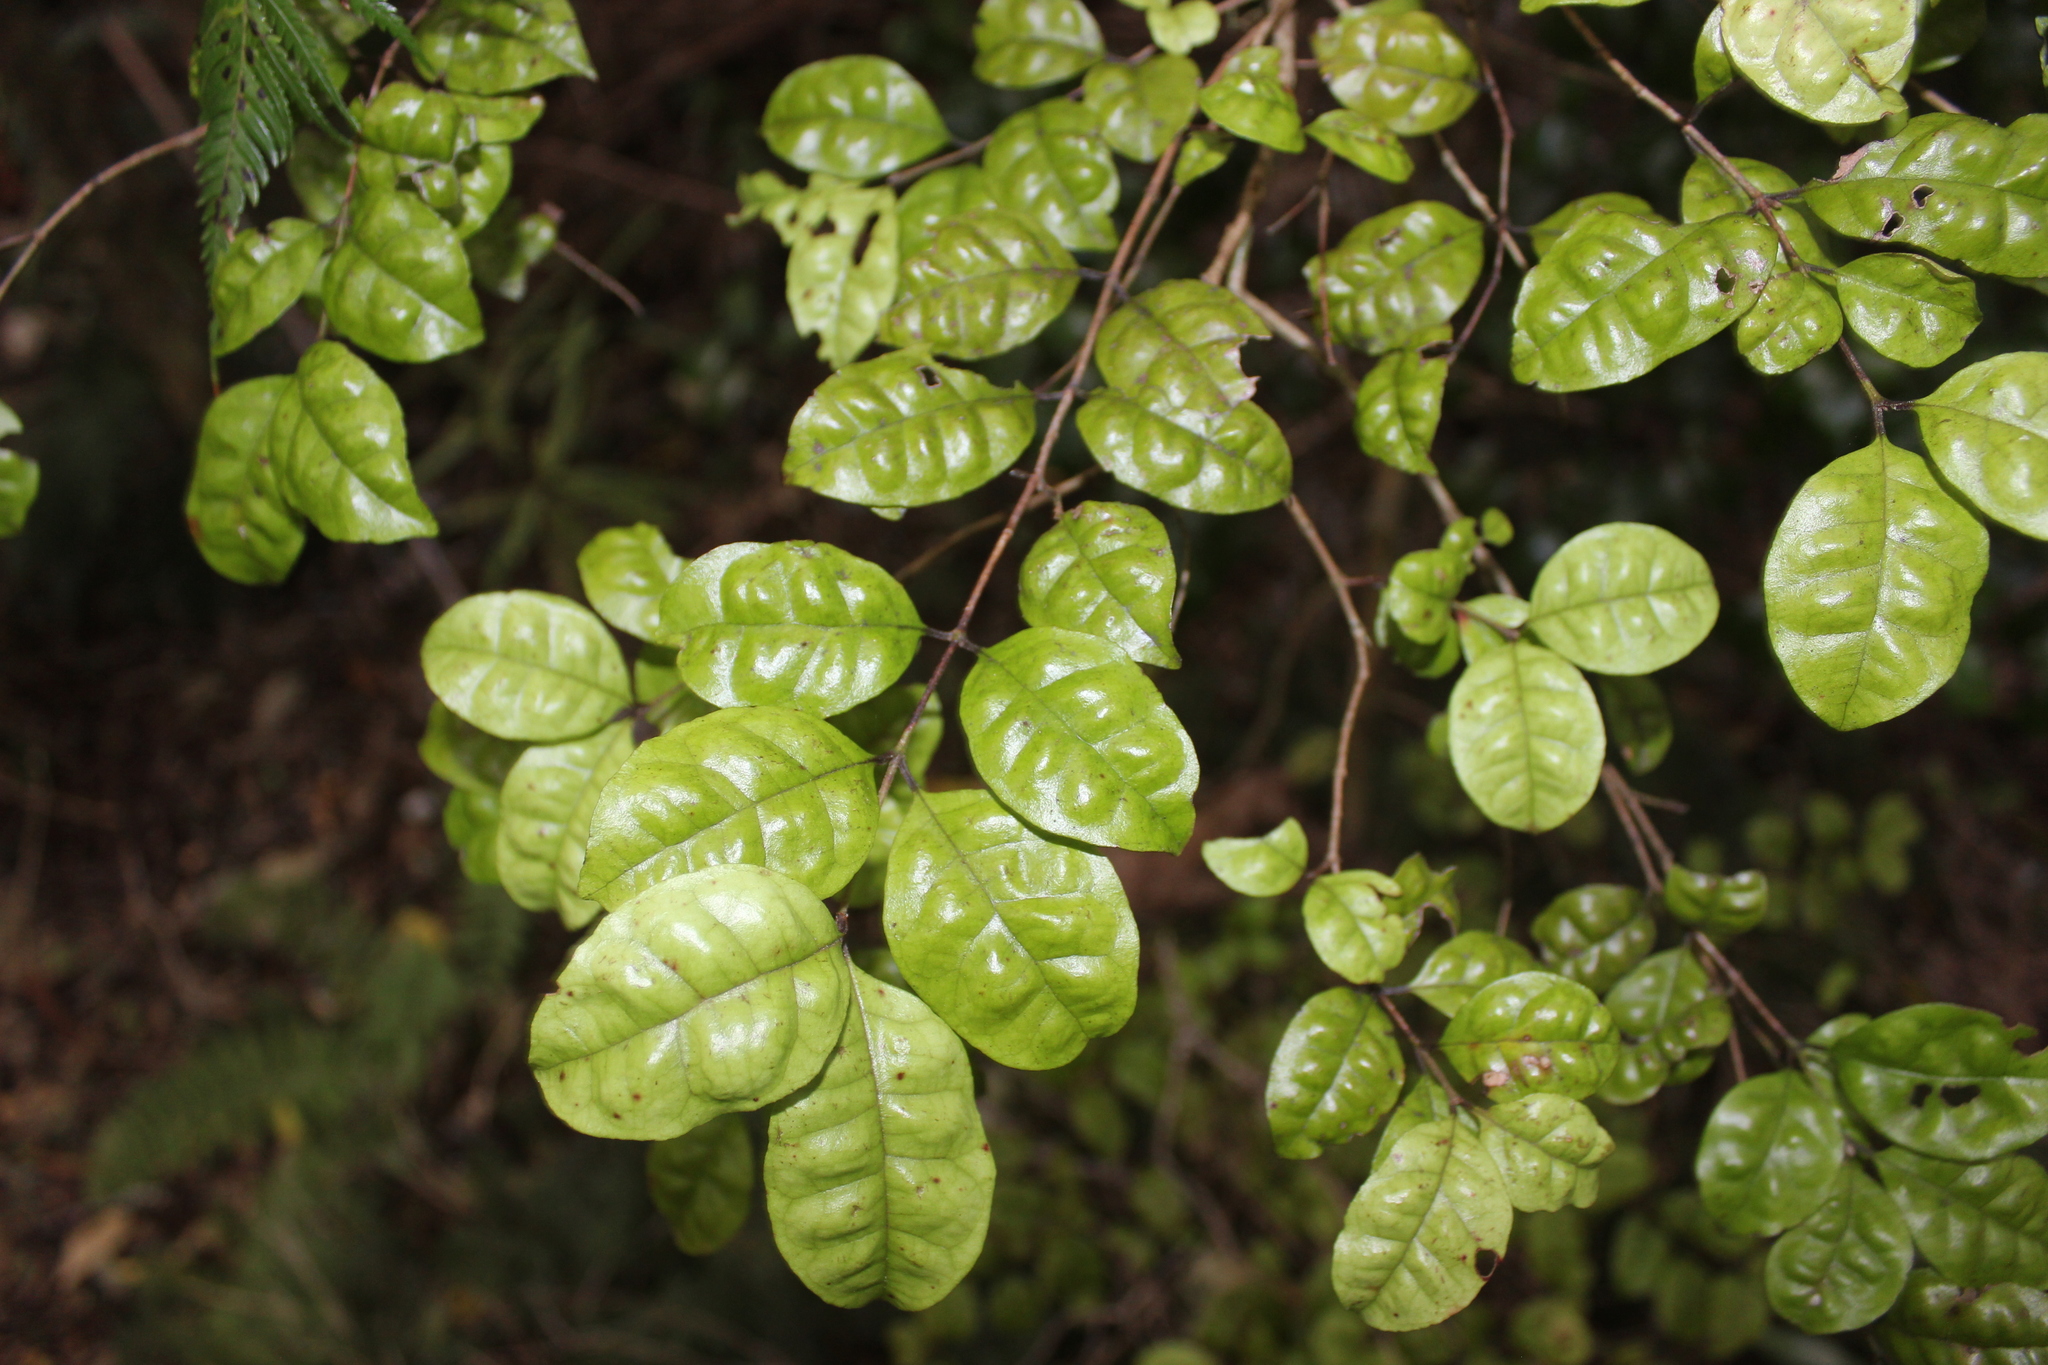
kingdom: Plantae
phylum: Tracheophyta
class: Magnoliopsida
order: Myrtales
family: Myrtaceae
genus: Lophomyrtus
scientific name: Lophomyrtus bullata
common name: Rama rama
